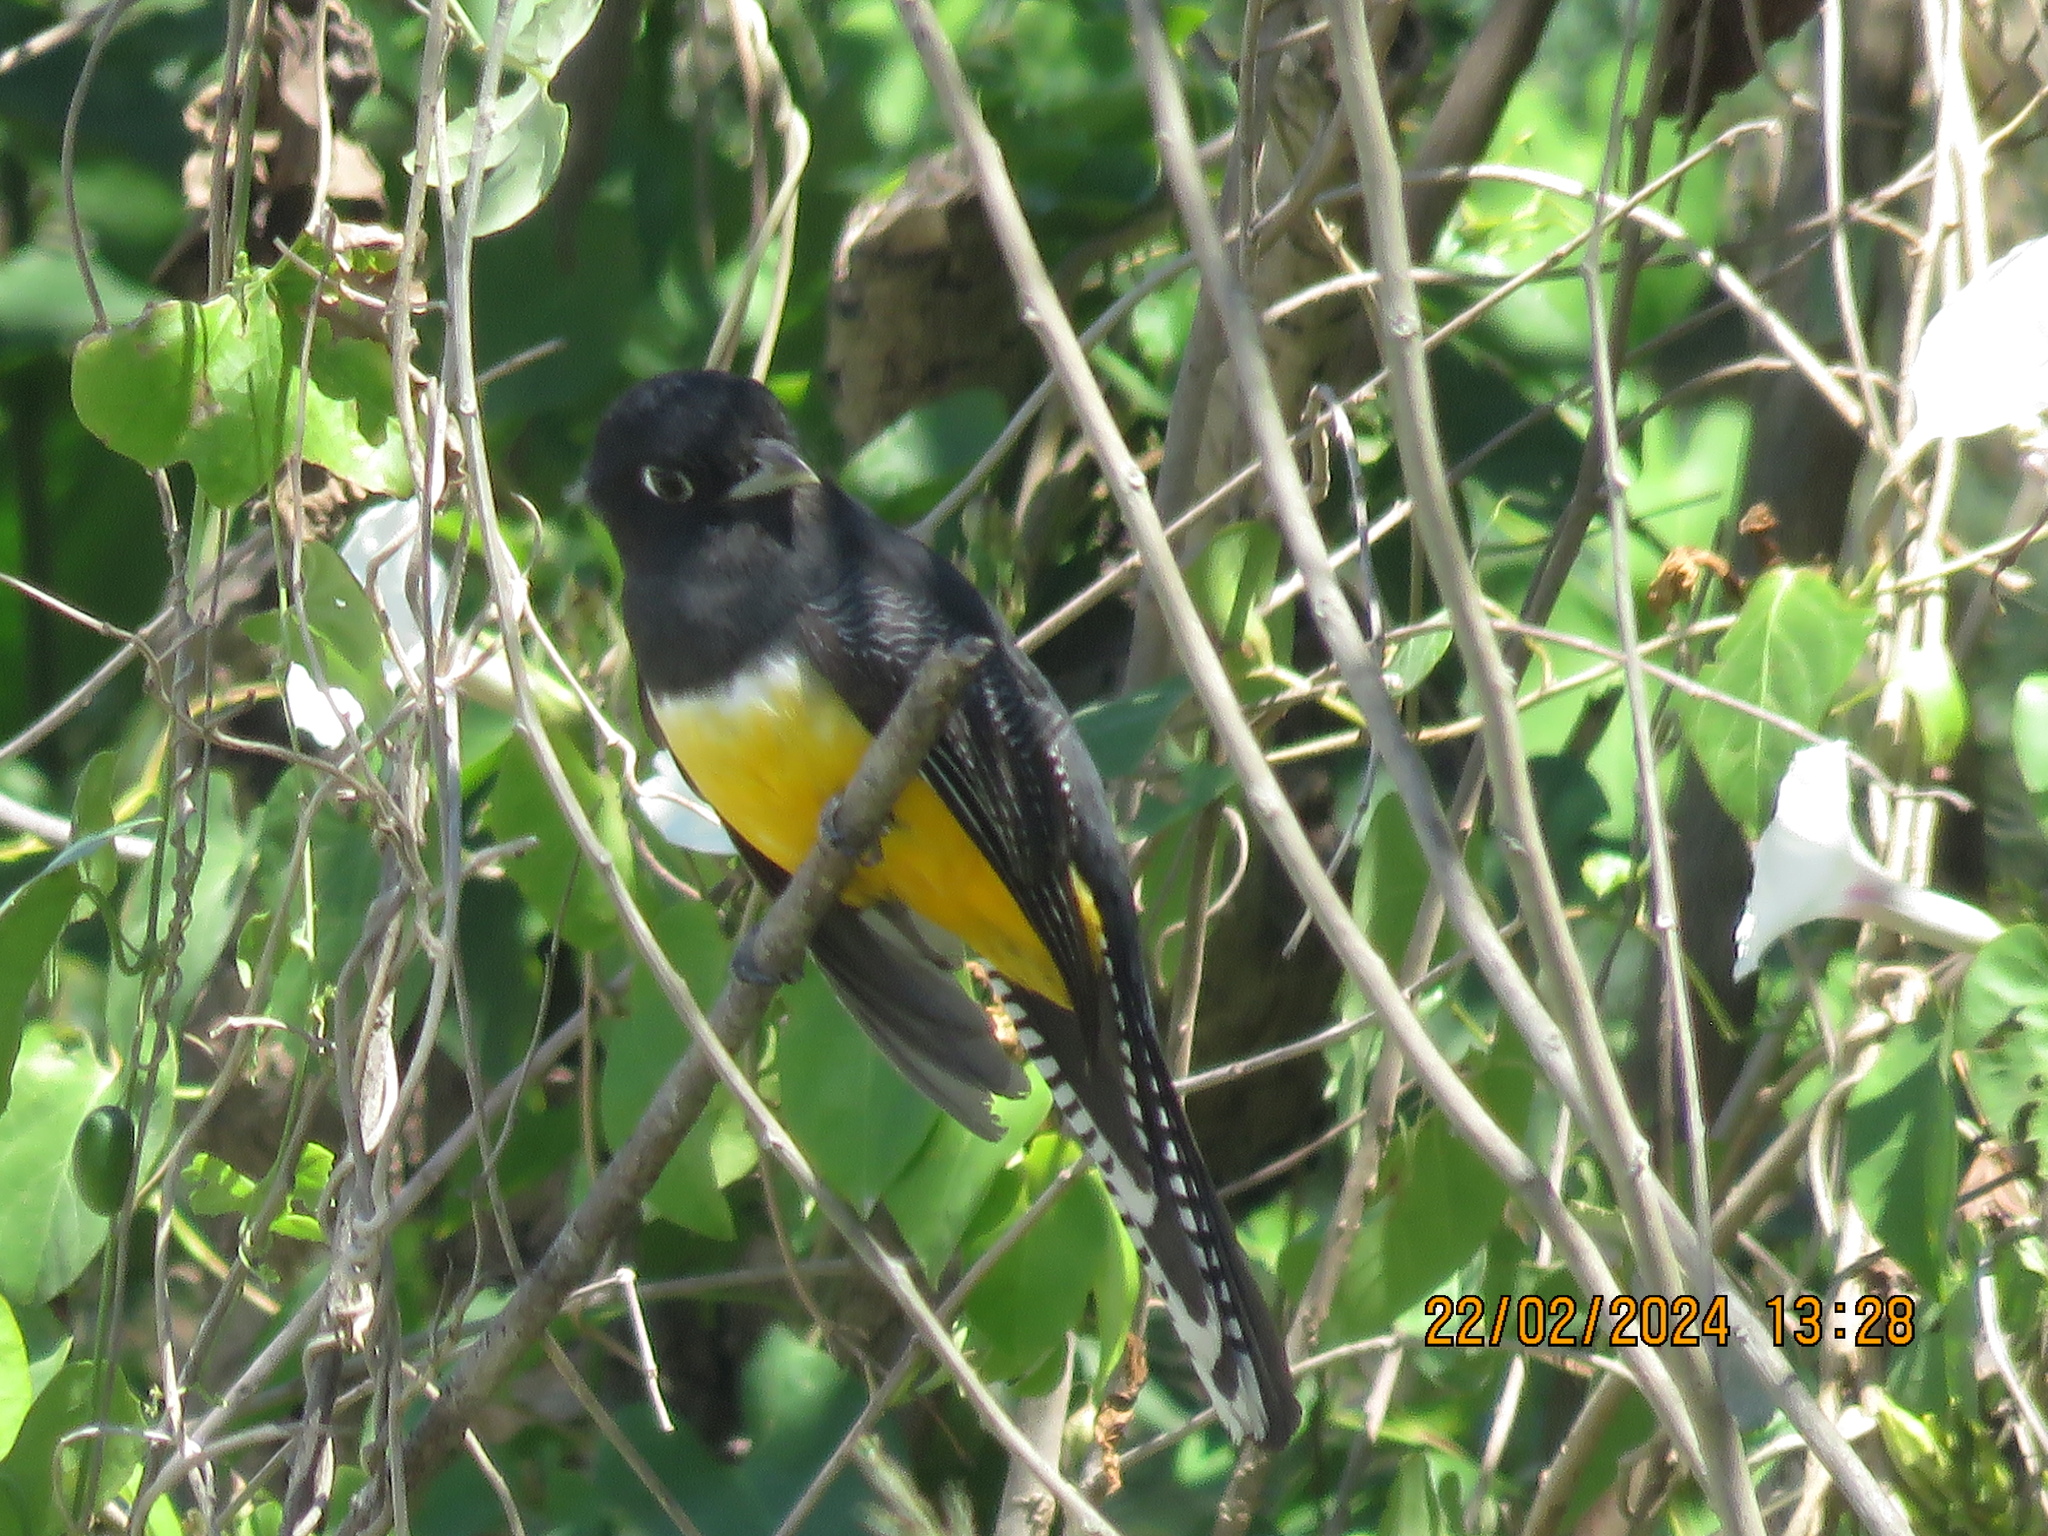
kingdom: Animalia
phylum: Chordata
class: Aves
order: Trogoniformes
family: Trogonidae
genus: Trogon
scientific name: Trogon caligatus
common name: Gartered trogon
